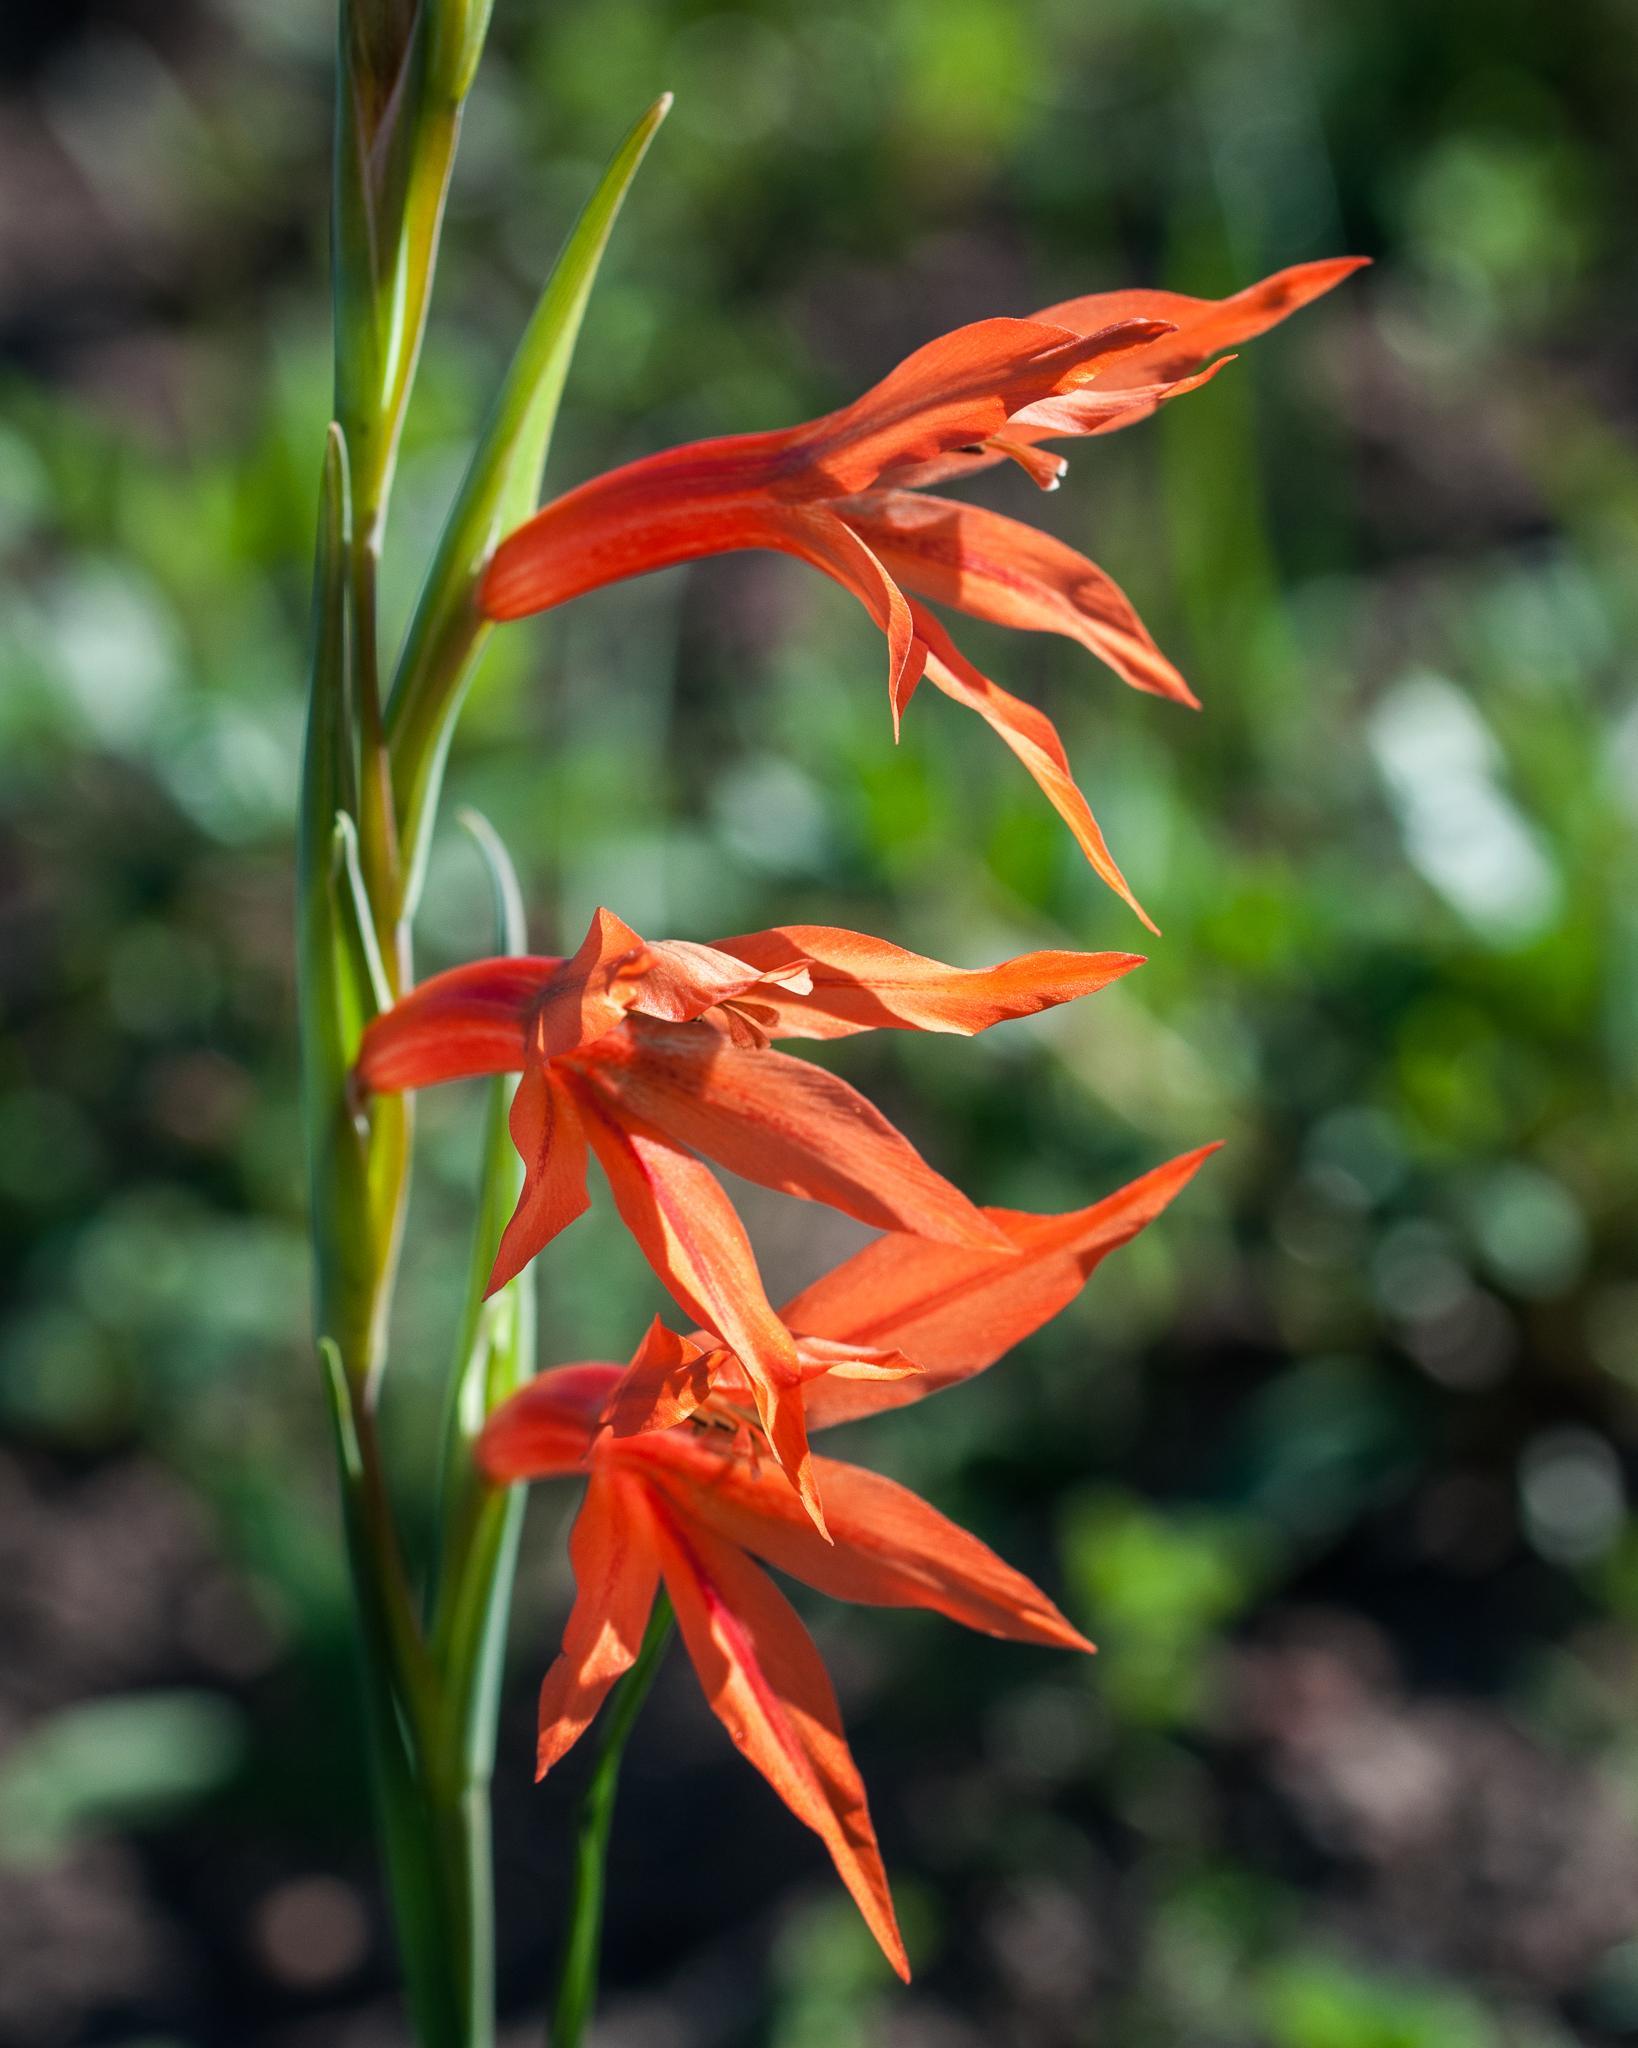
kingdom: Plantae
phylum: Tracheophyta
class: Liliopsida
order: Asparagales
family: Iridaceae
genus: Gladiolus
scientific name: Gladiolus watsonius
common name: Red afrikaner
